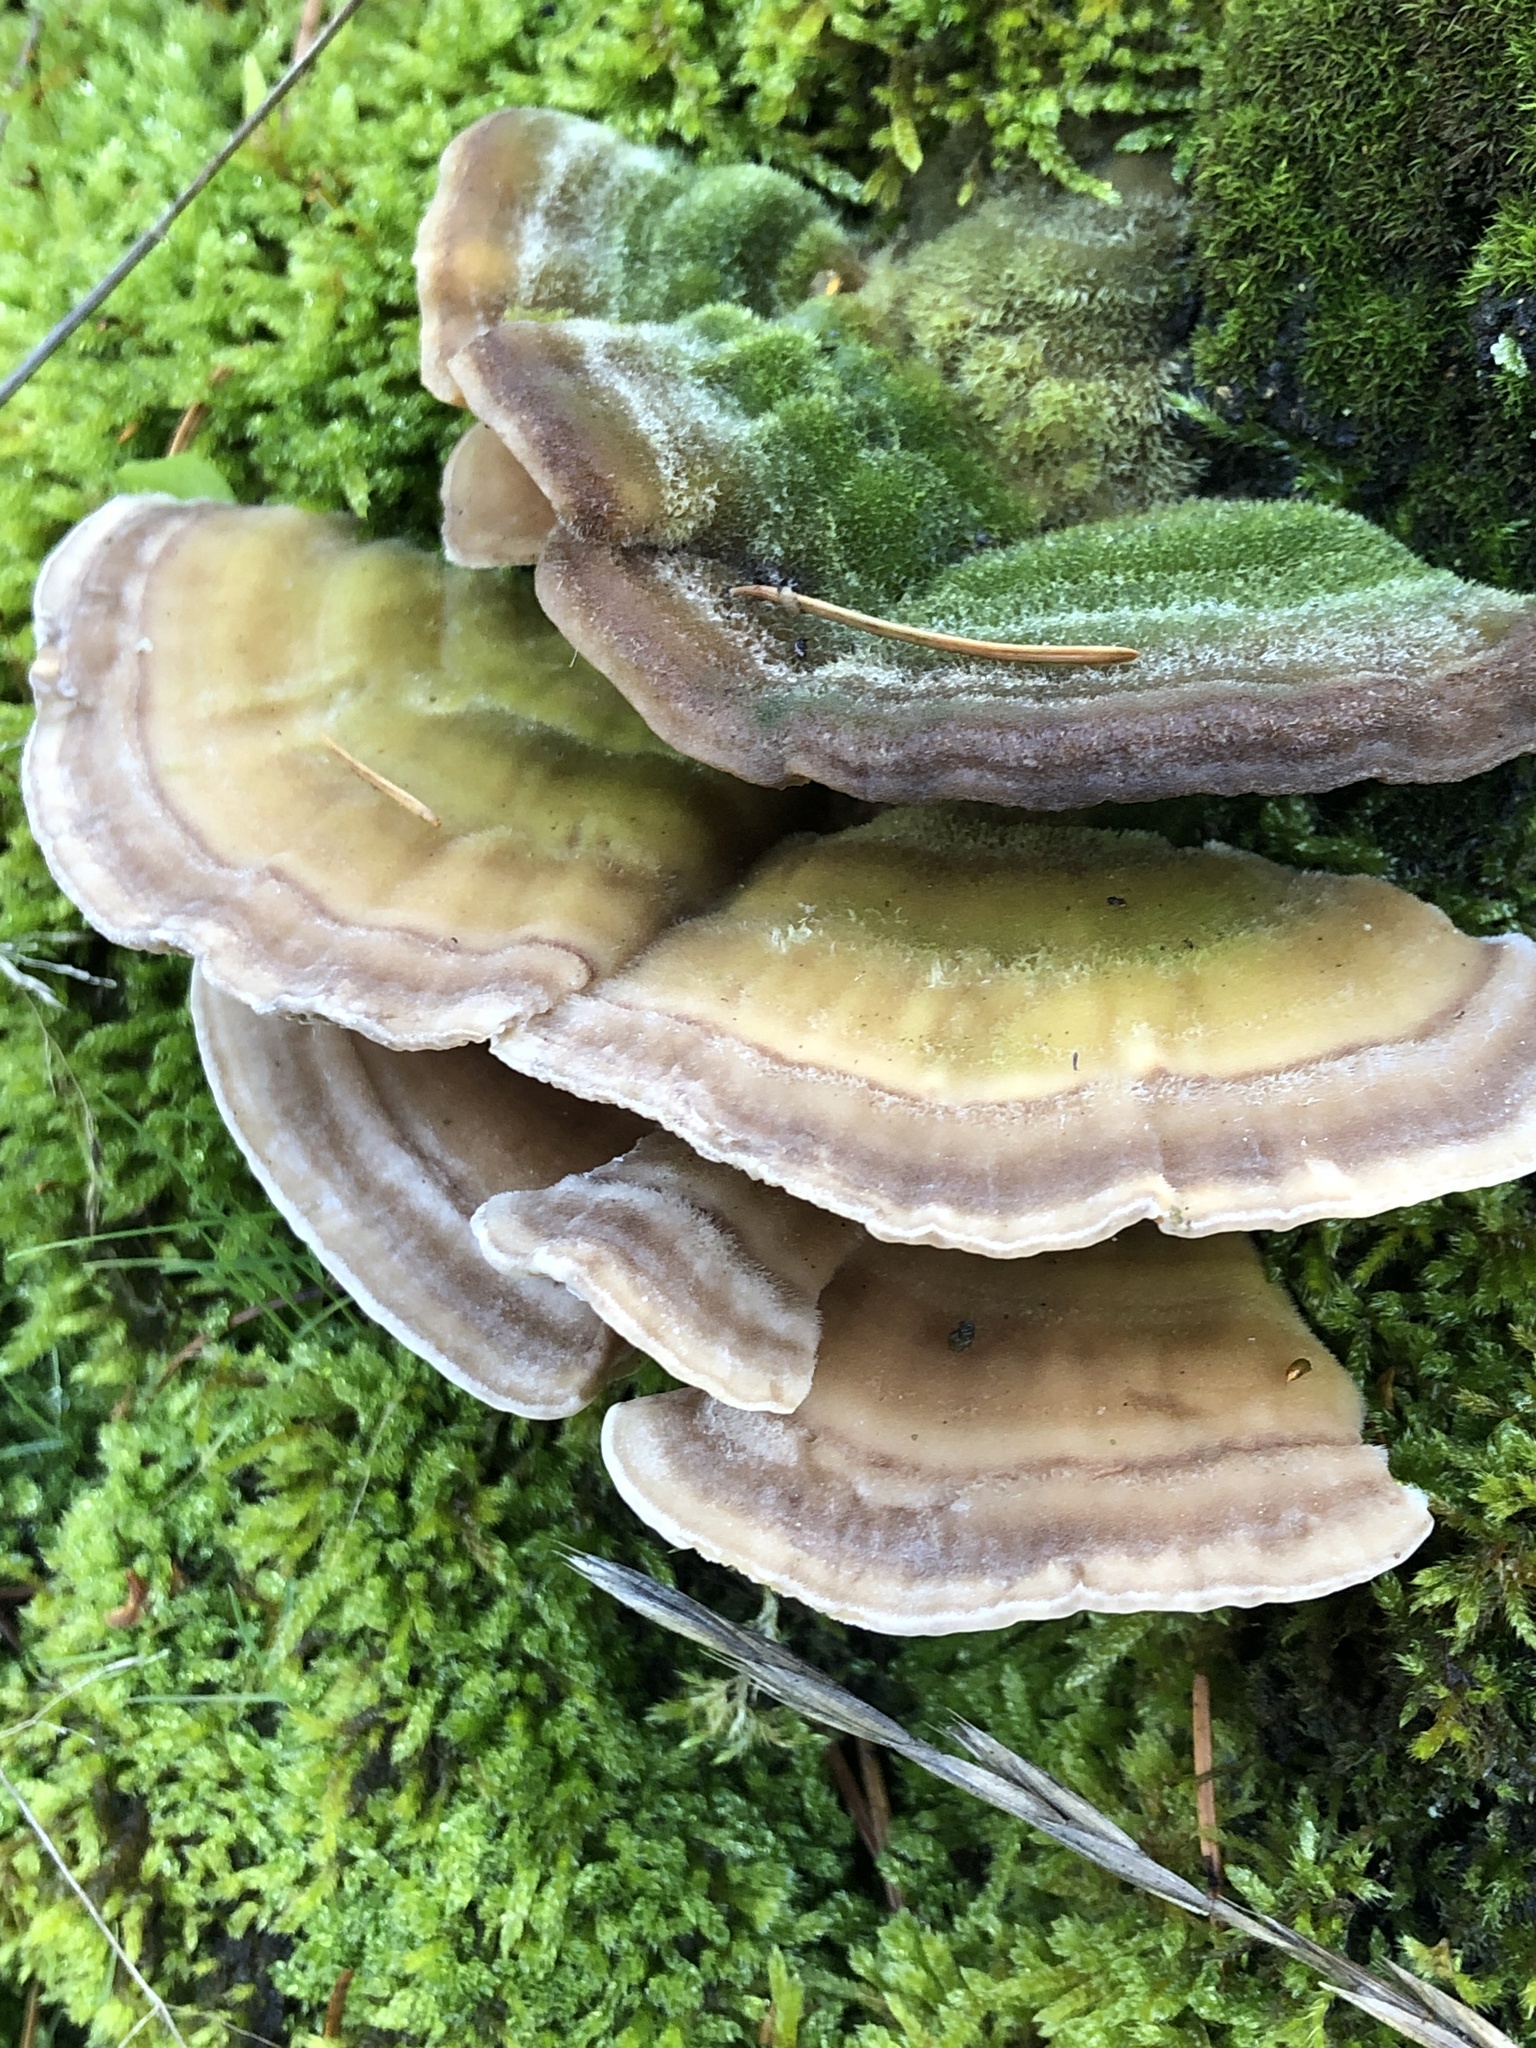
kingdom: Fungi
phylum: Basidiomycota
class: Agaricomycetes
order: Polyporales
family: Polyporaceae
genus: Trametes
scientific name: Trametes hirsuta
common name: Hairy bracket
